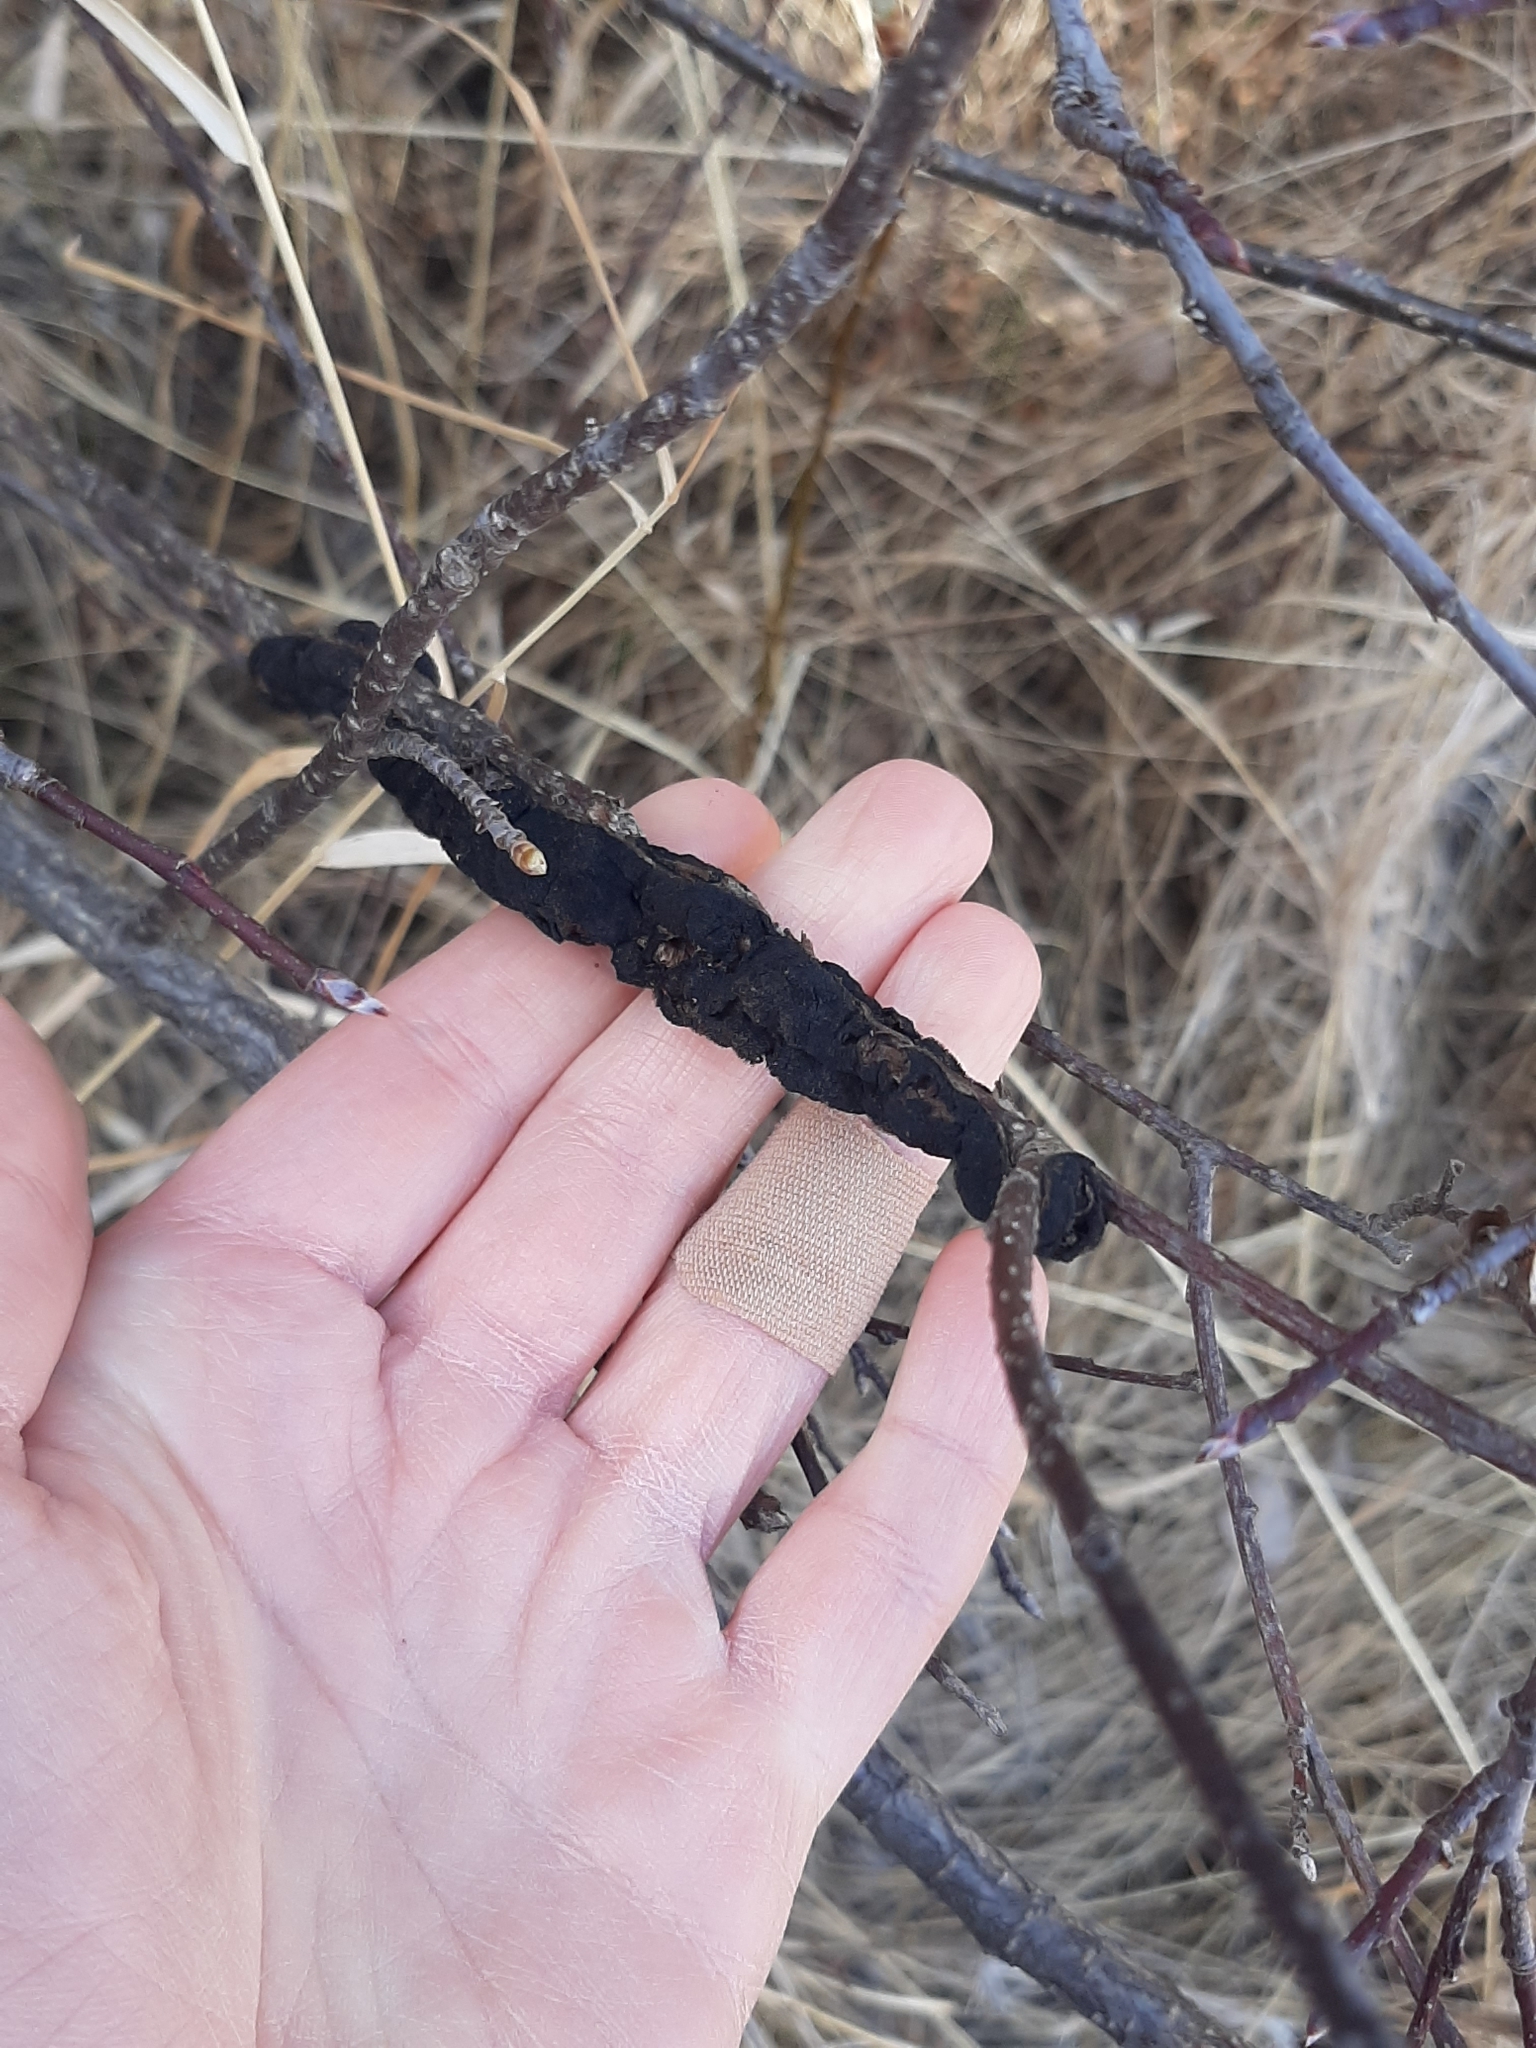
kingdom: Fungi
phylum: Ascomycota
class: Dothideomycetes
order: Venturiales
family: Venturiaceae
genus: Apiosporina
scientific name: Apiosporina morbosa
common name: Black knot
